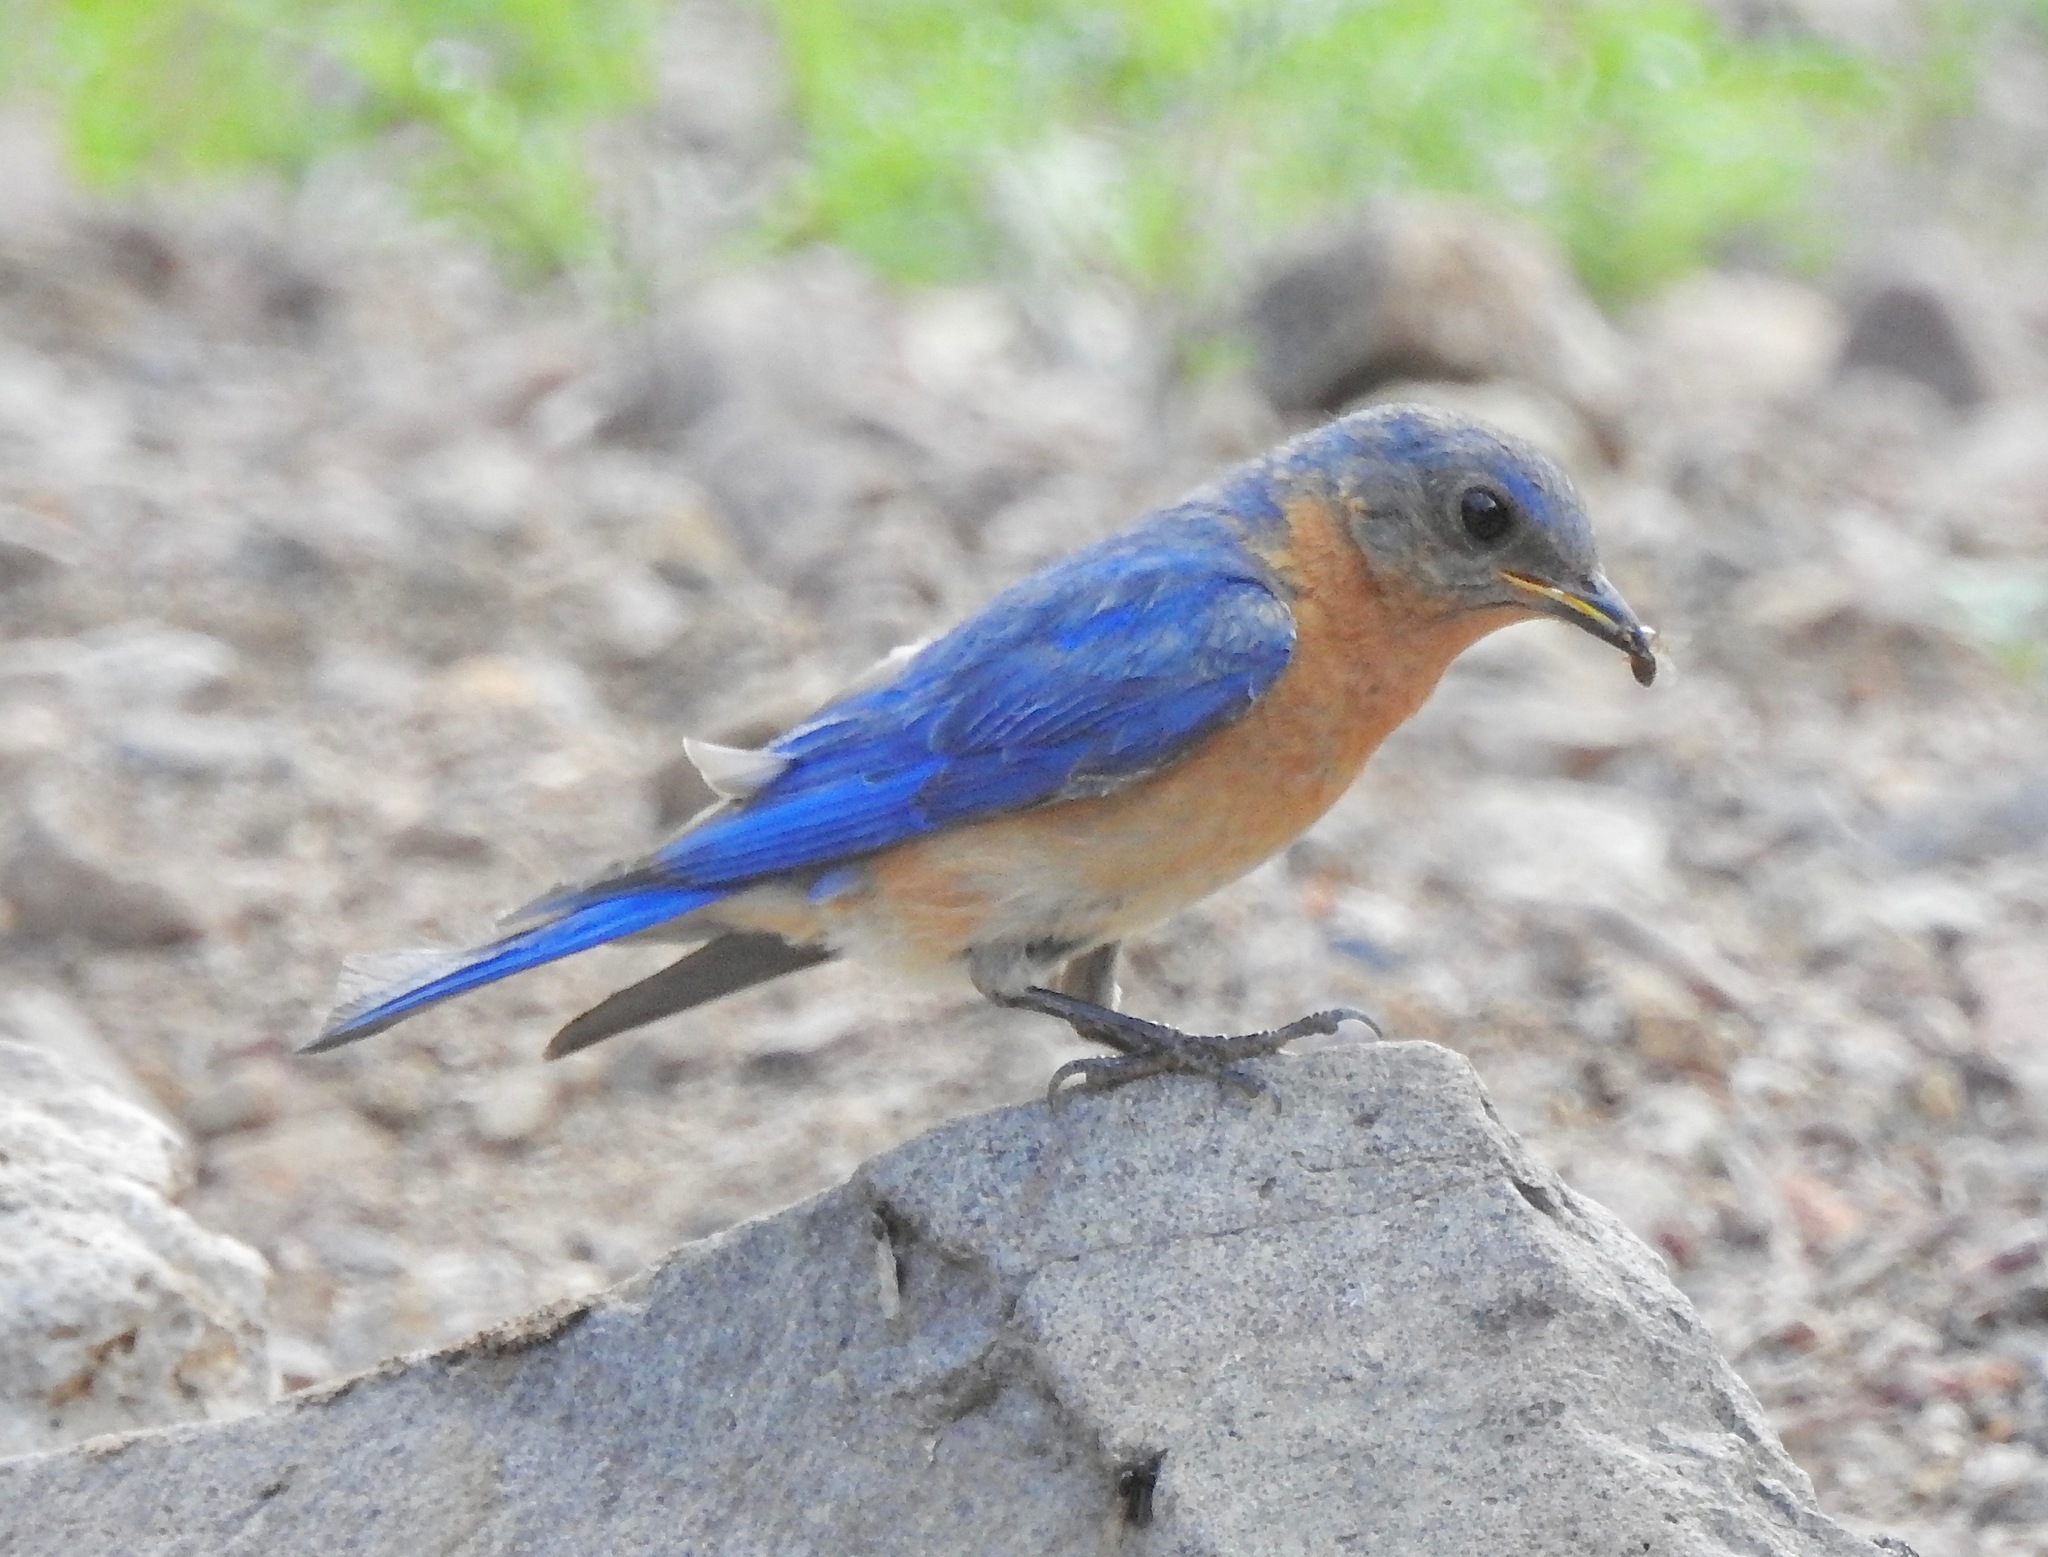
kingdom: Animalia
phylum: Chordata
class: Aves
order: Passeriformes
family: Turdidae
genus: Sialia
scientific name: Sialia sialis
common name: Eastern bluebird
